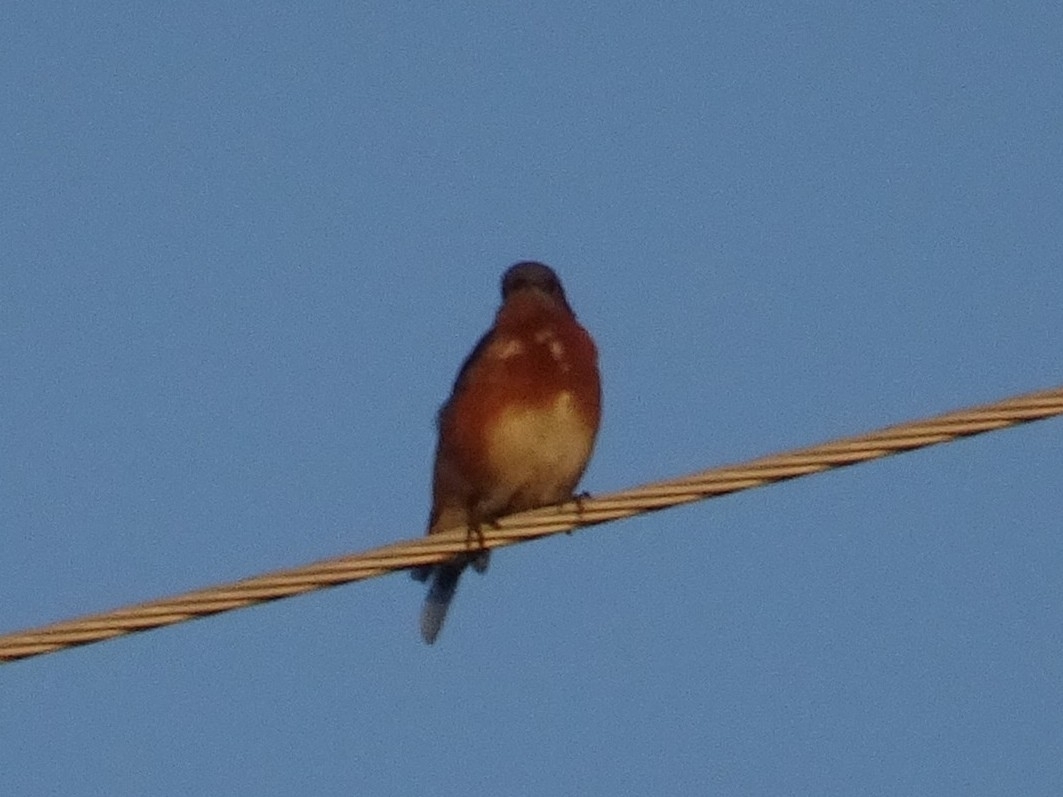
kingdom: Animalia
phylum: Chordata
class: Aves
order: Passeriformes
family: Turdidae
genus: Sialia
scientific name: Sialia sialis
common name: Eastern bluebird
